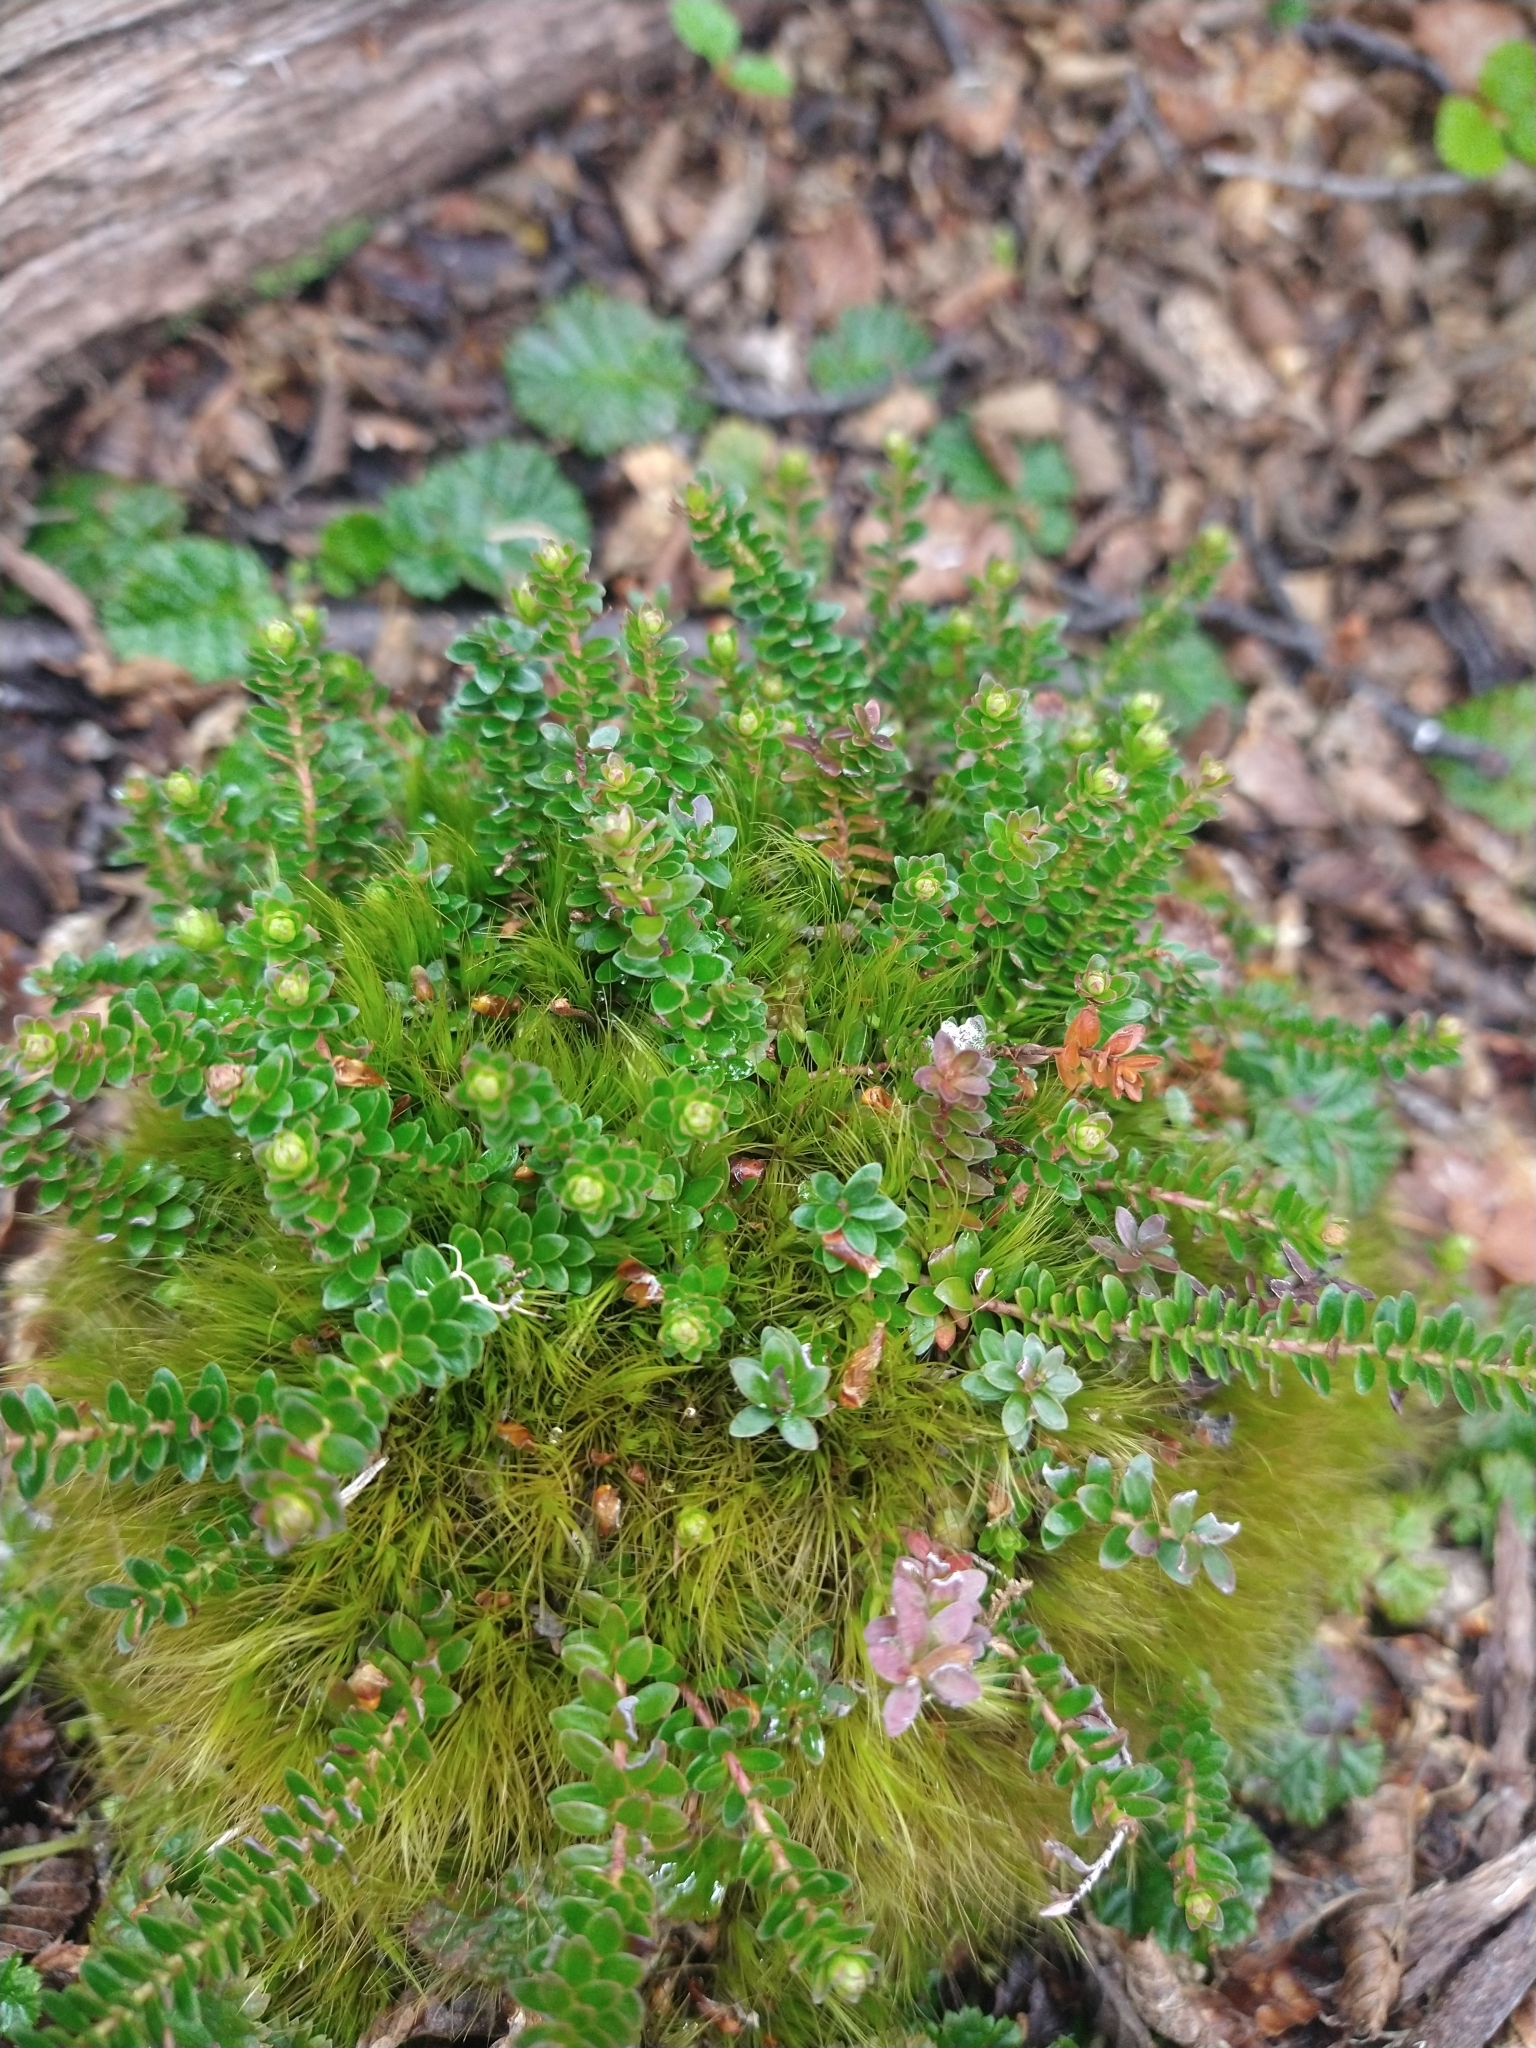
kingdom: Plantae
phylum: Tracheophyta
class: Magnoliopsida
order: Ericales
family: Ericaceae
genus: Gaultheria
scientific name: Gaultheria pumila
